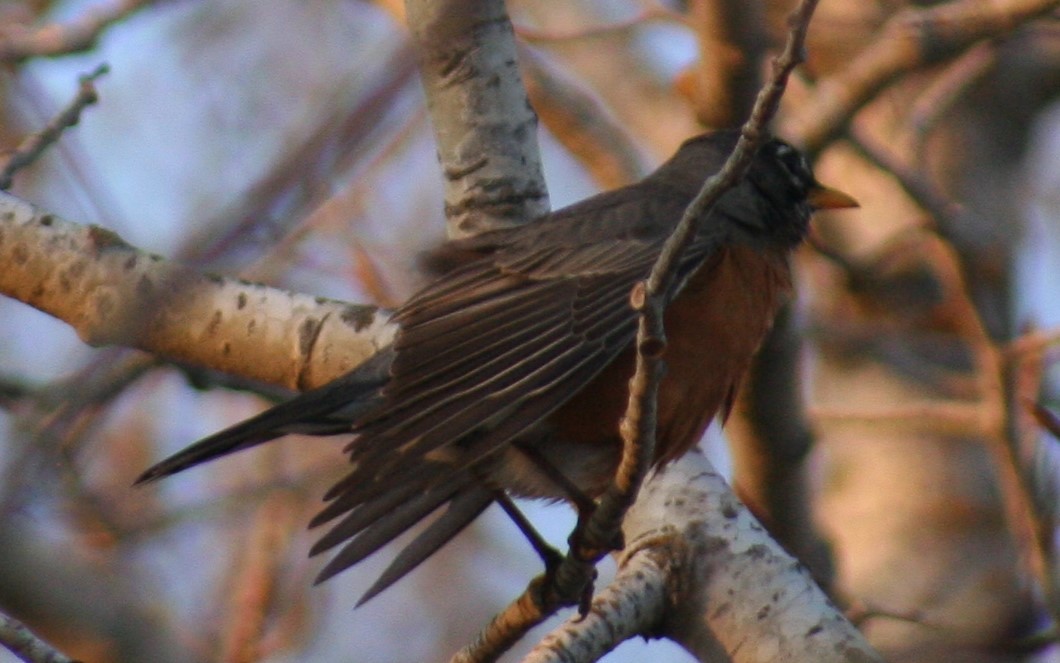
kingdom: Animalia
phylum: Chordata
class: Aves
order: Passeriformes
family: Turdidae
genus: Turdus
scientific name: Turdus migratorius
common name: American robin
